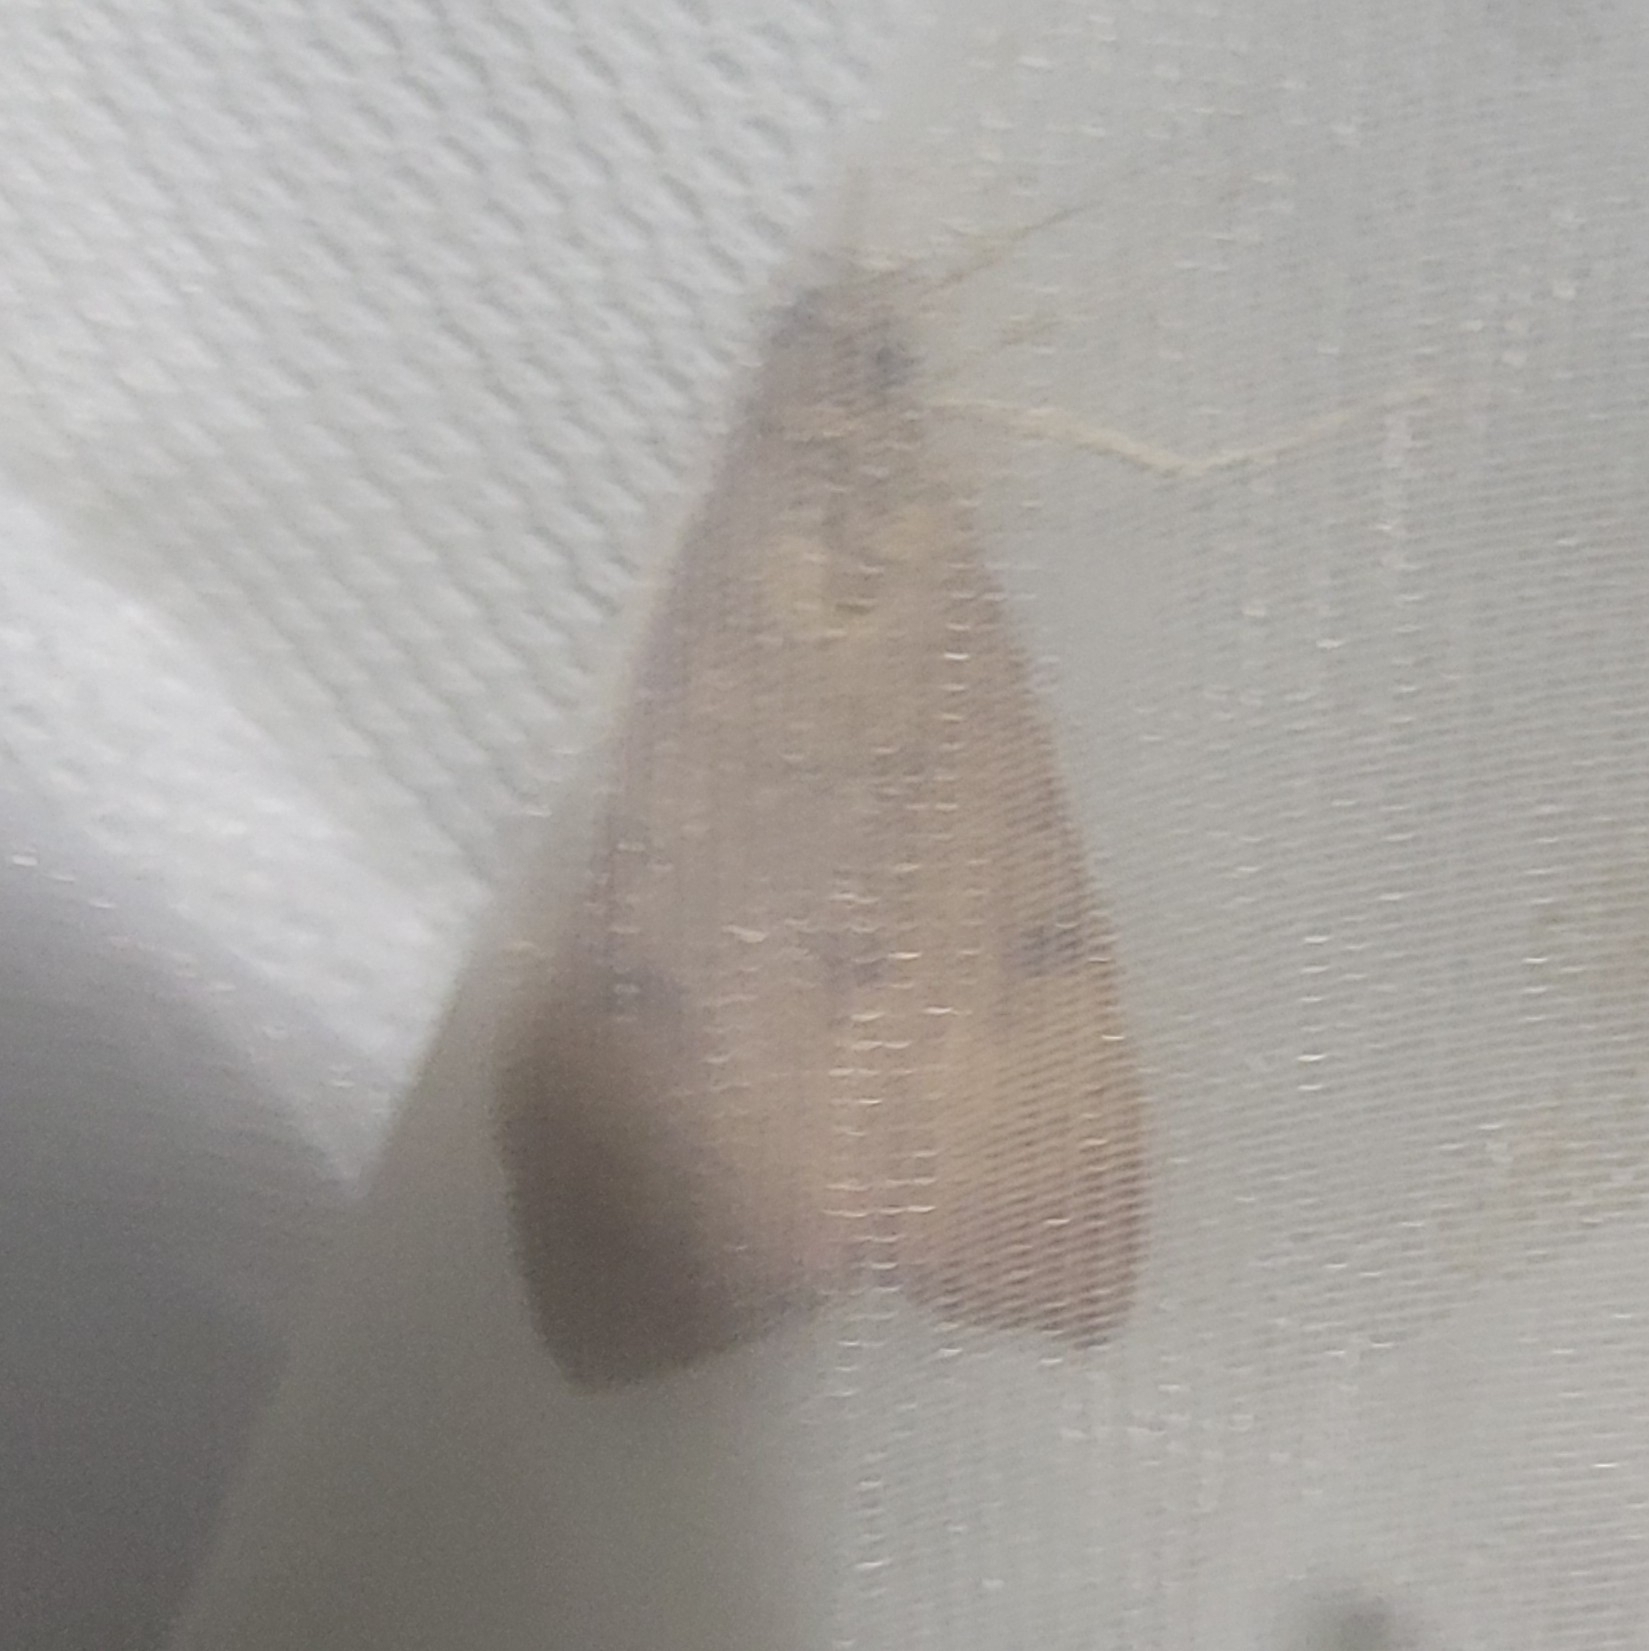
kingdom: Animalia
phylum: Arthropoda
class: Insecta
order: Lepidoptera
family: Crambidae
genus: Uresiphita
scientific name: Uresiphita gilvata
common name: Yellow-underwing pearl
